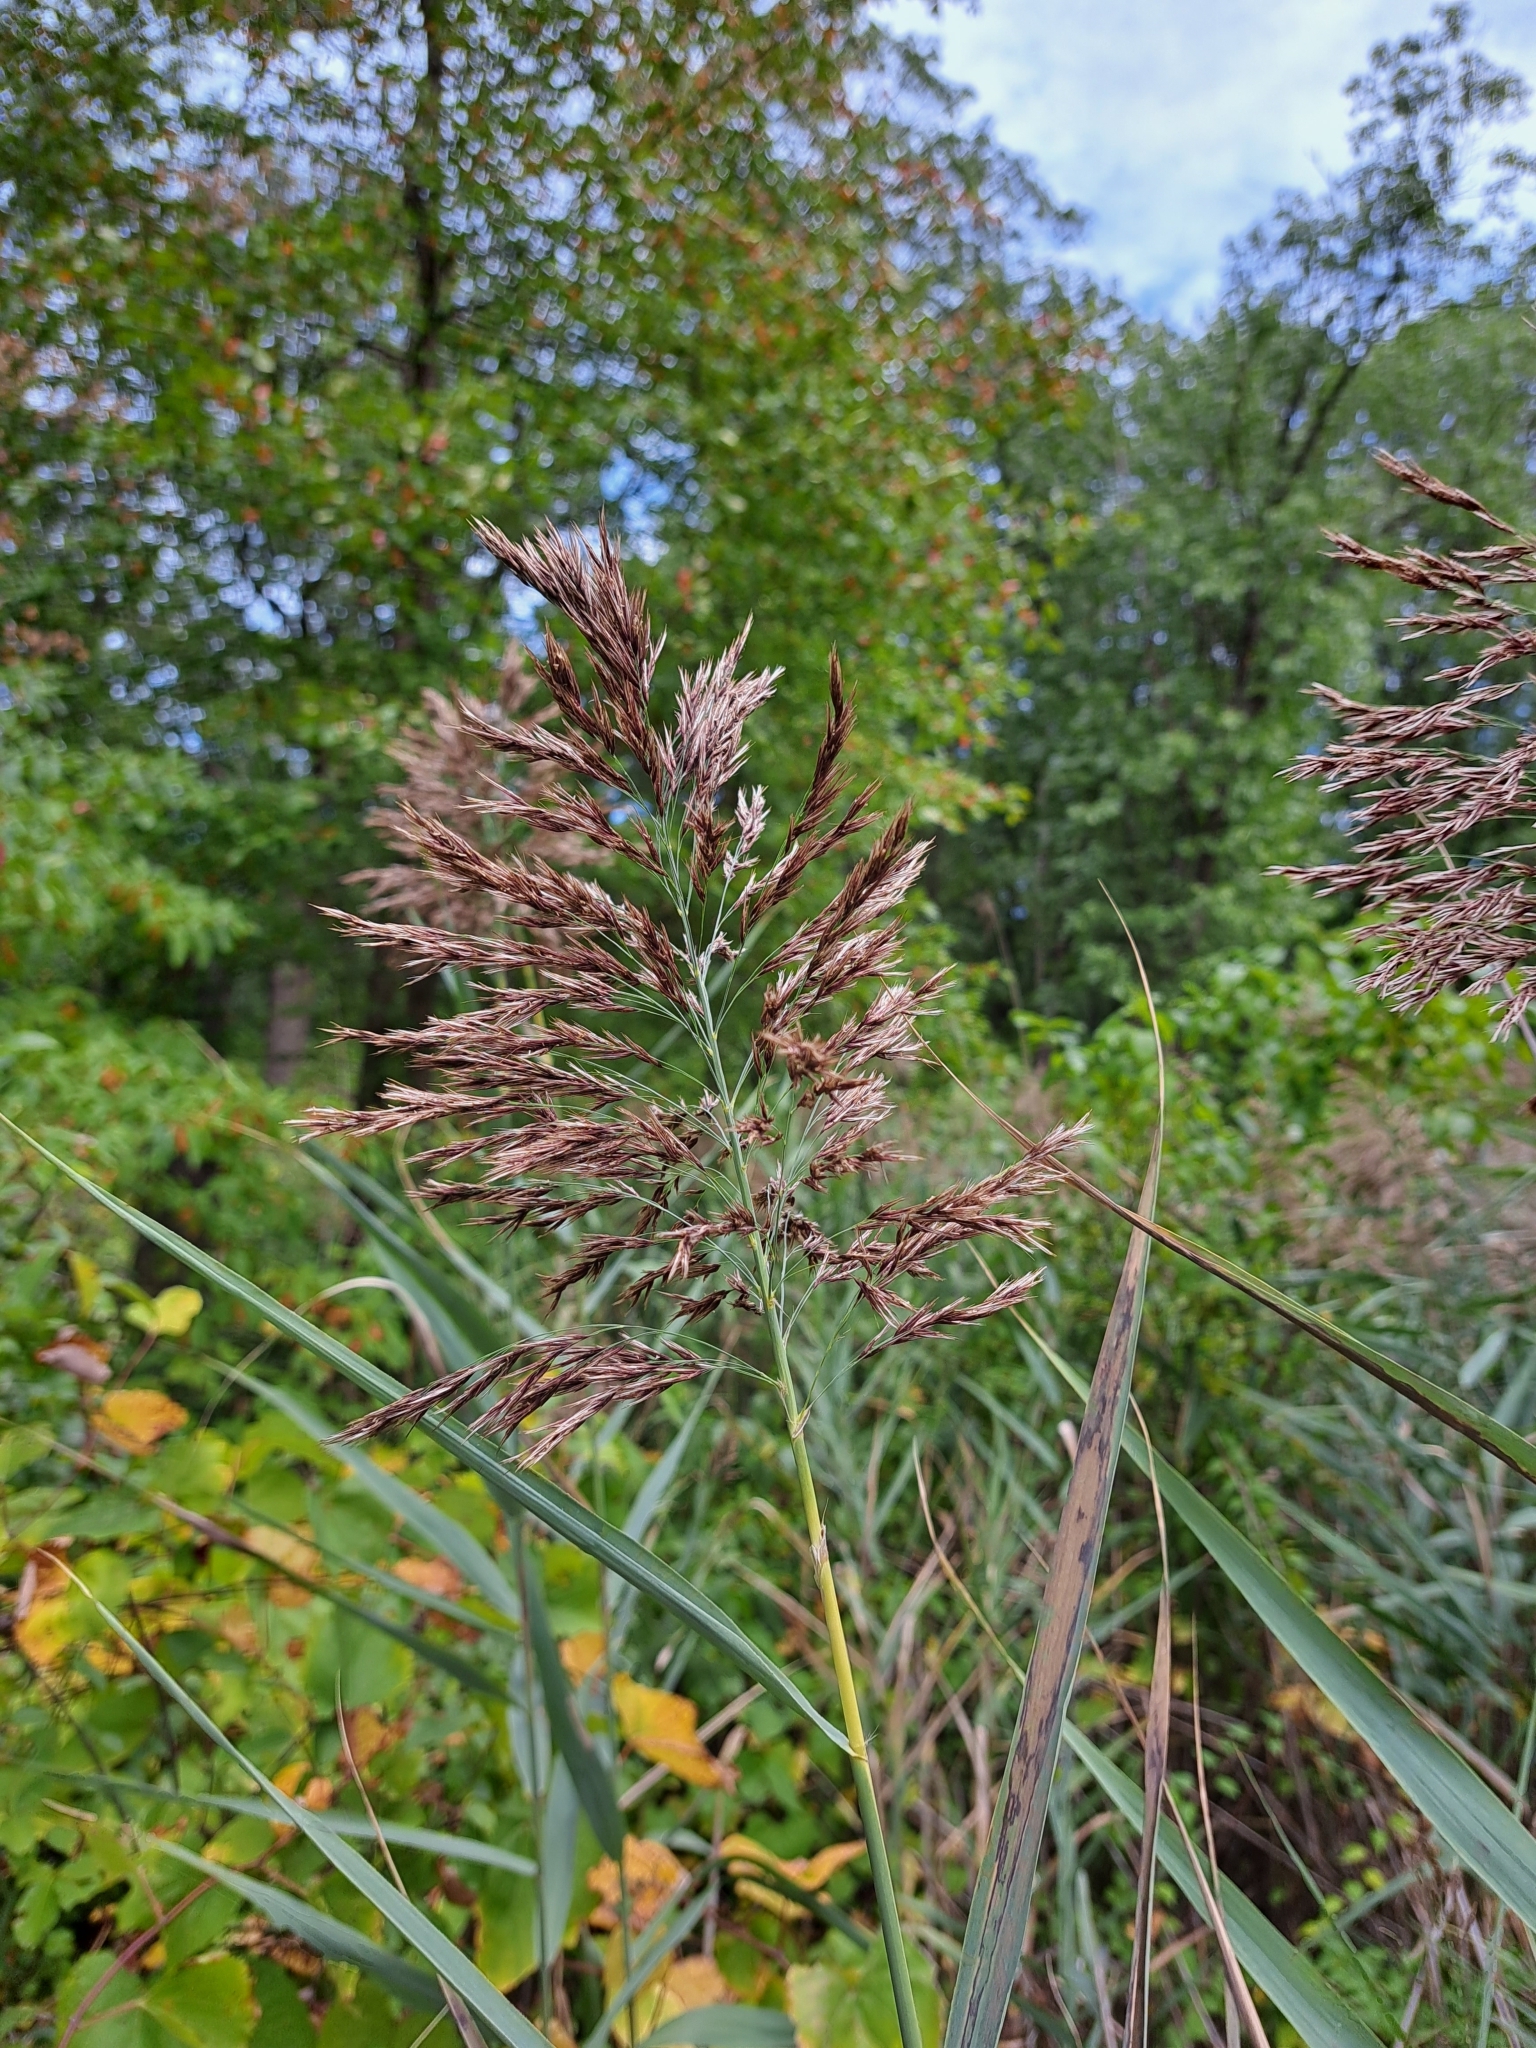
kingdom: Plantae
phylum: Tracheophyta
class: Liliopsida
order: Poales
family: Poaceae
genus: Phragmites
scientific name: Phragmites australis
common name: Common reed
